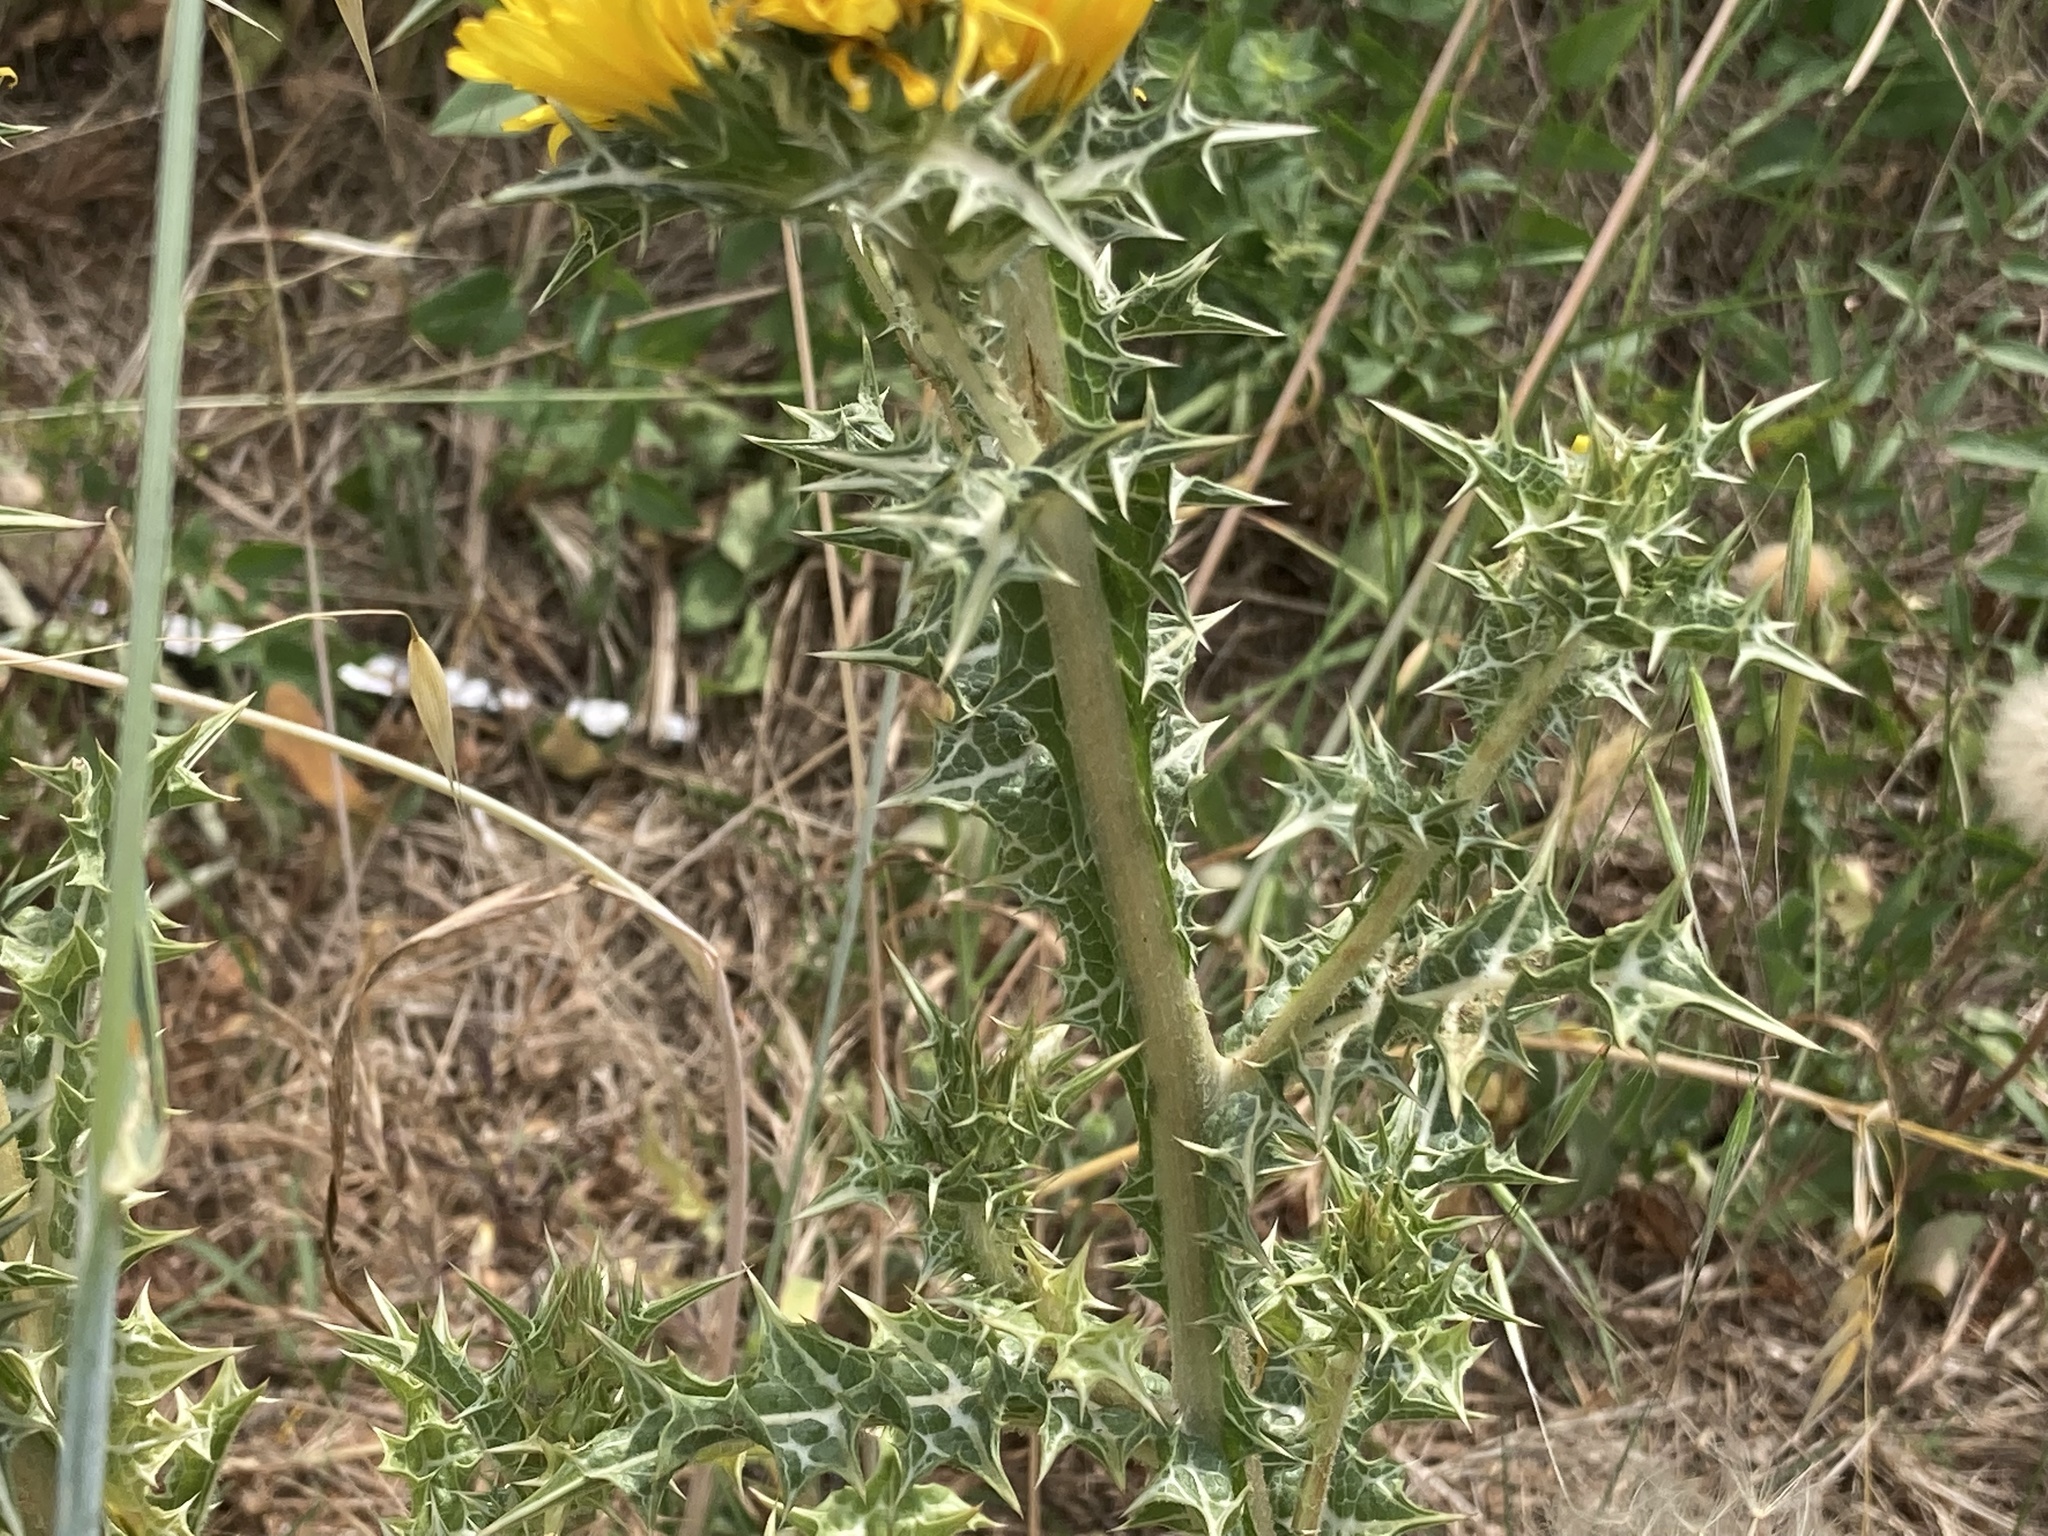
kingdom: Plantae
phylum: Tracheophyta
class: Magnoliopsida
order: Asterales
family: Asteraceae
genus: Scolymus
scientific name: Scolymus hispanicus
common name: Golden thistle
